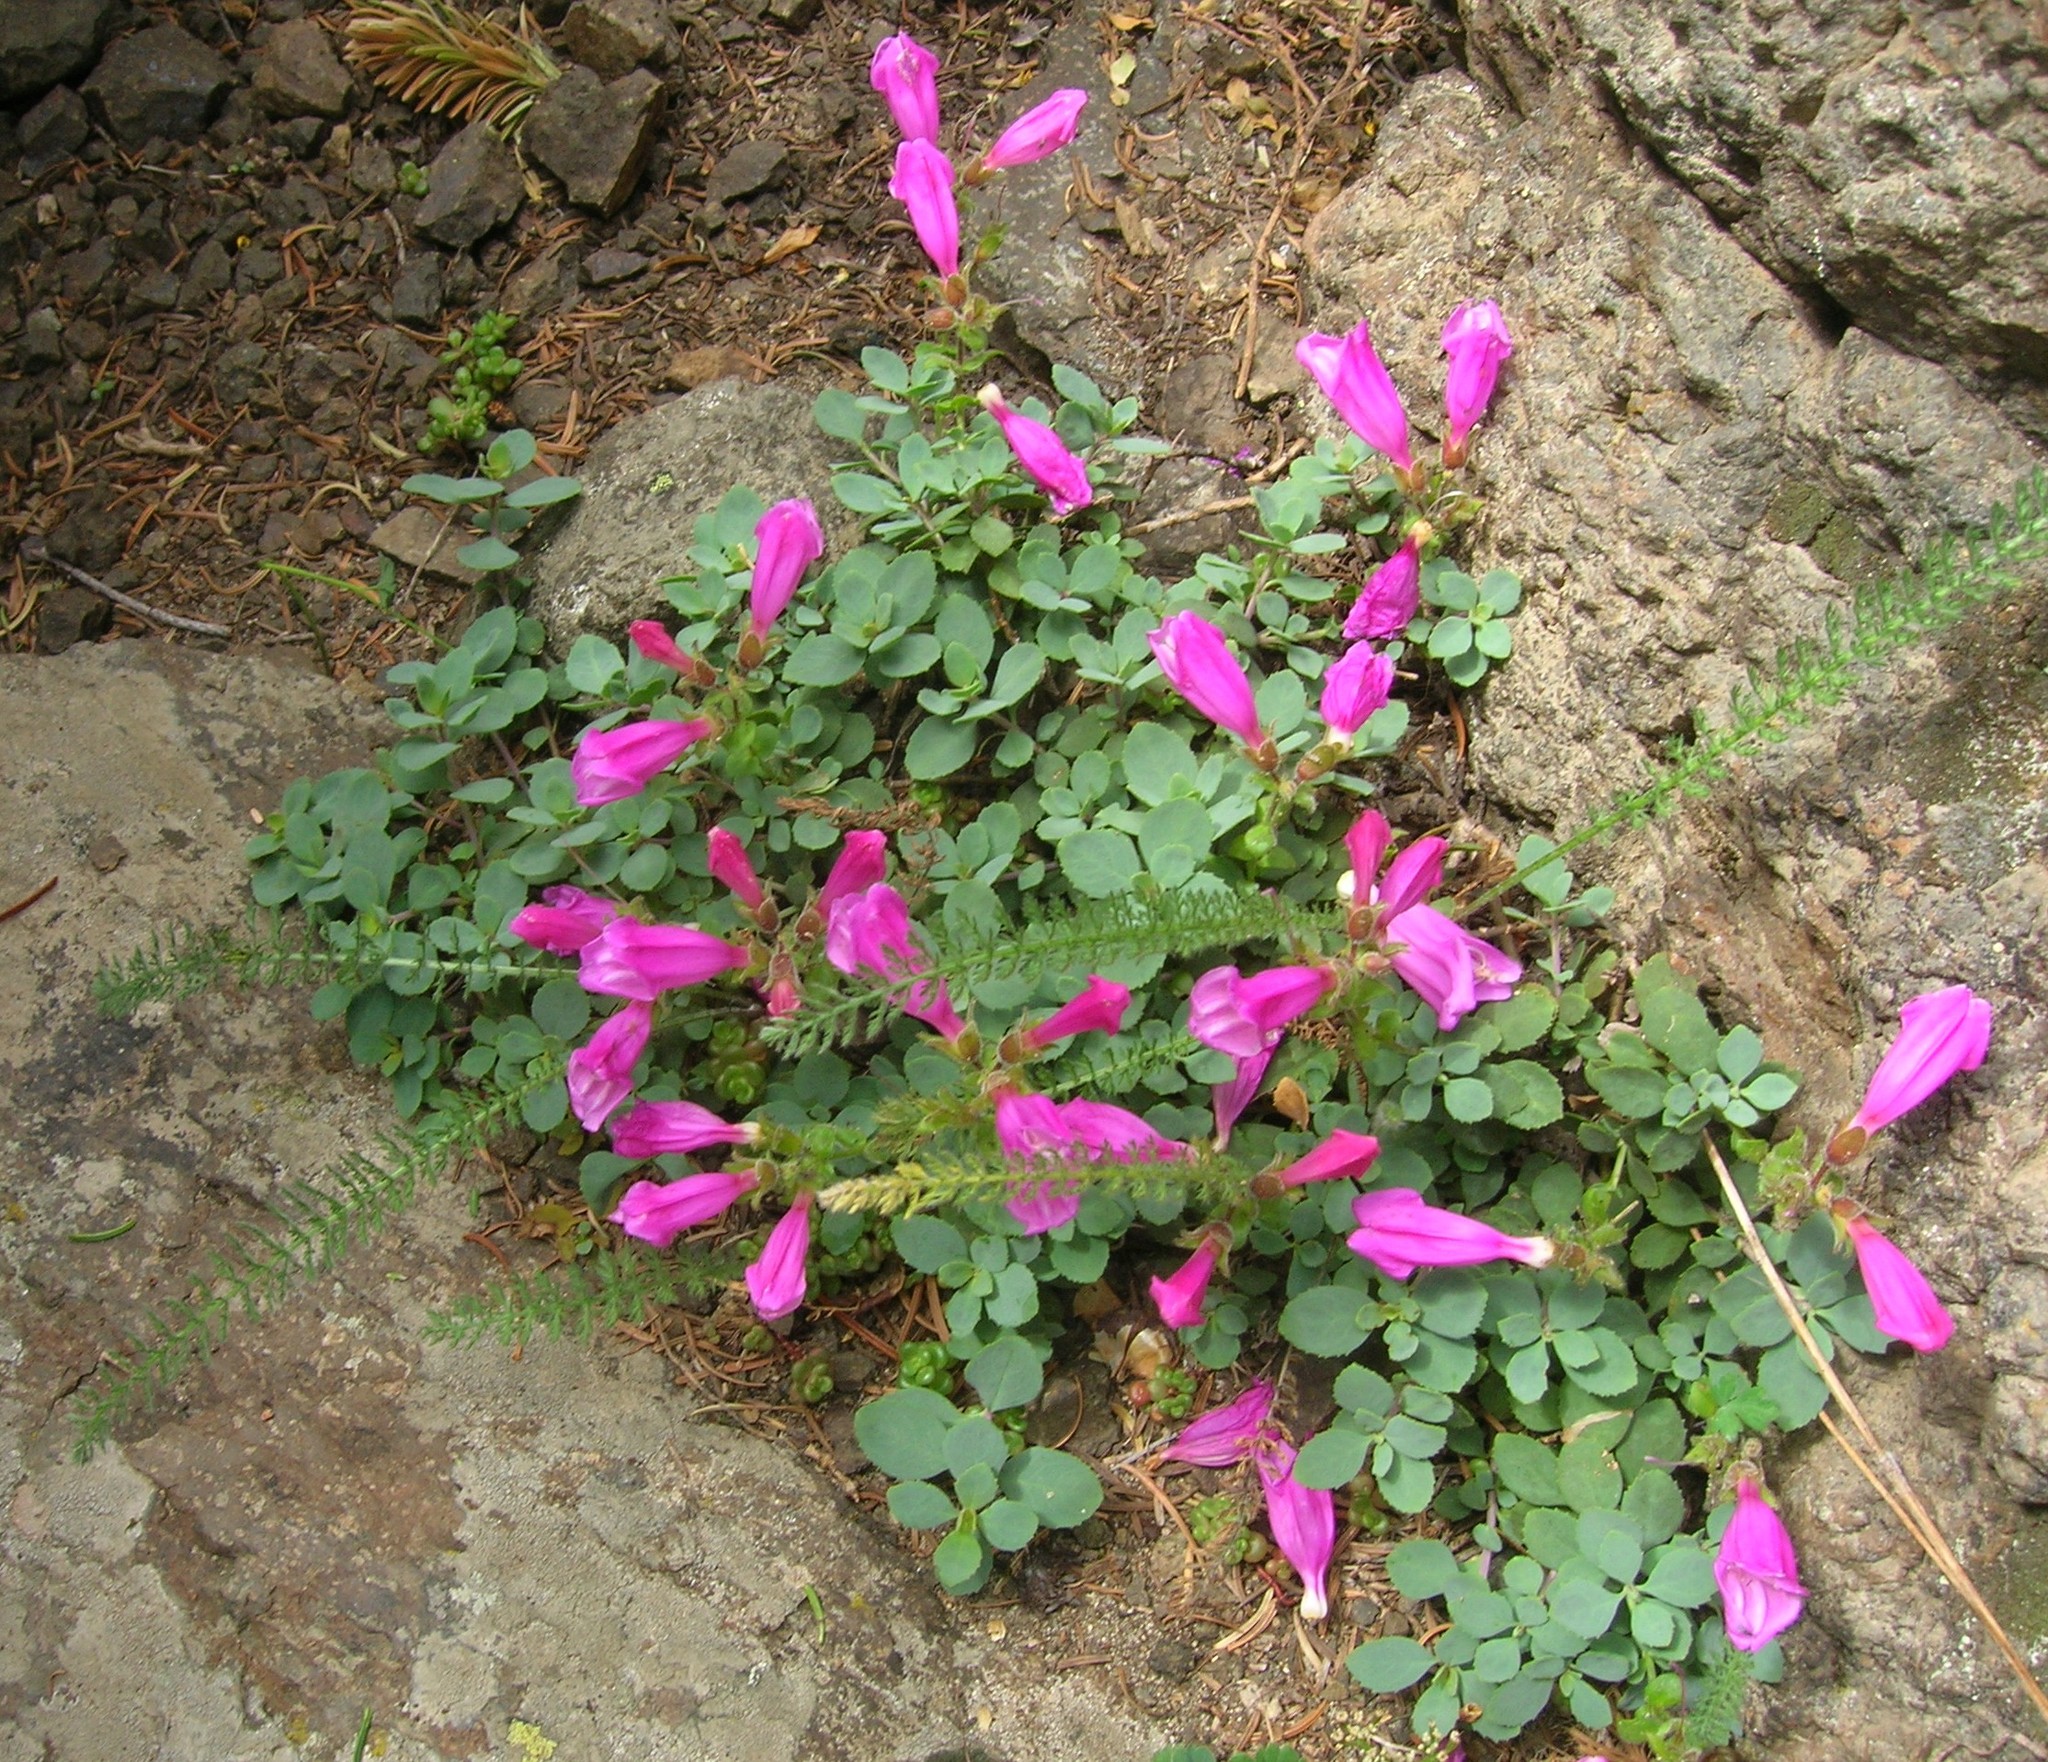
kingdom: Plantae
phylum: Tracheophyta
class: Magnoliopsida
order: Lamiales
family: Plantaginaceae
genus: Penstemon
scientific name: Penstemon rupicola
